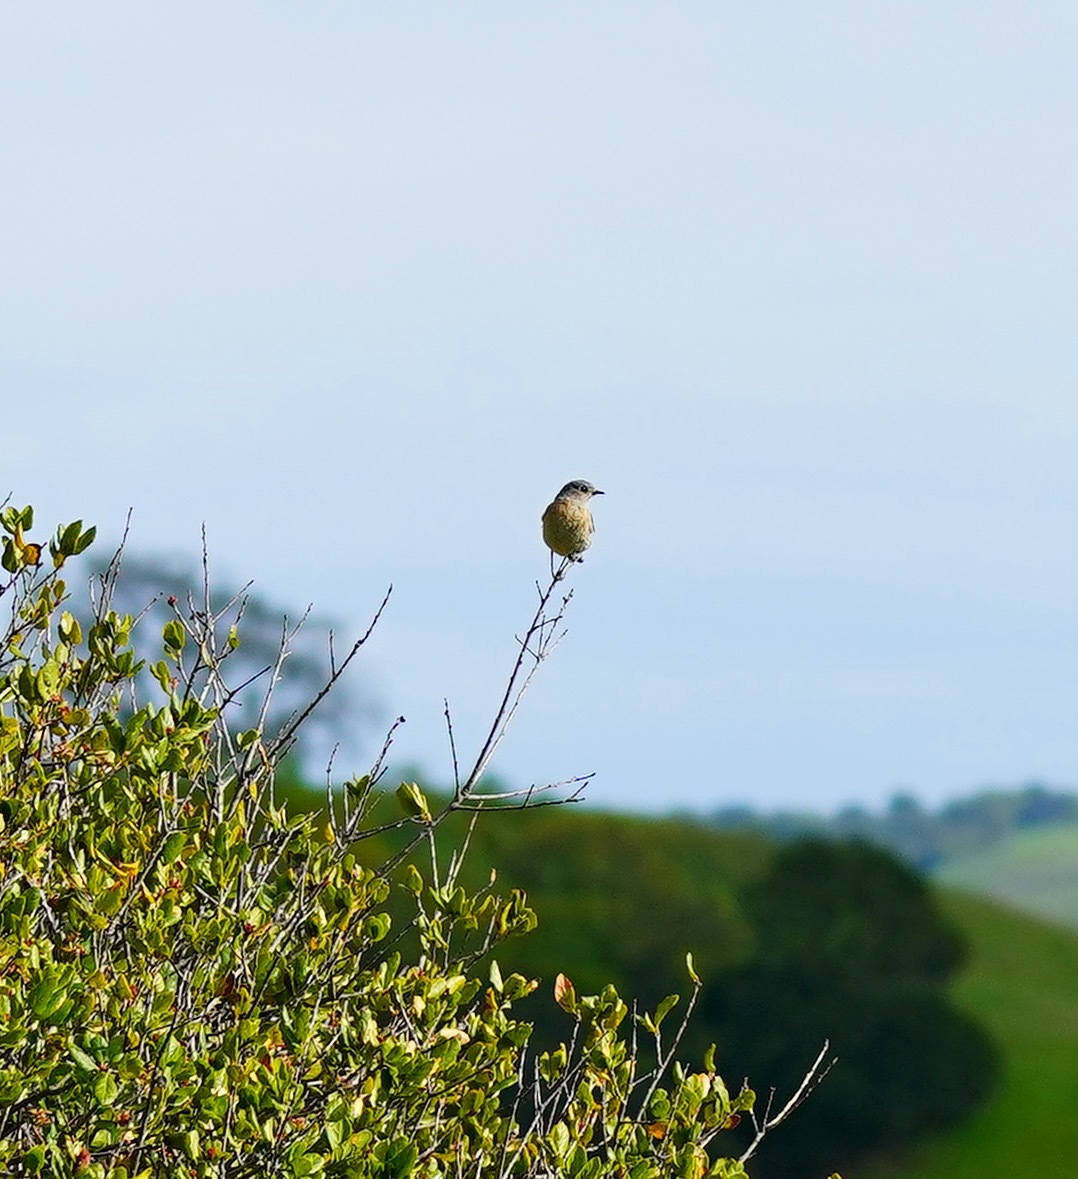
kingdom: Animalia
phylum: Chordata
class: Aves
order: Passeriformes
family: Turdidae
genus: Sialia
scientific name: Sialia mexicana
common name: Western bluebird
